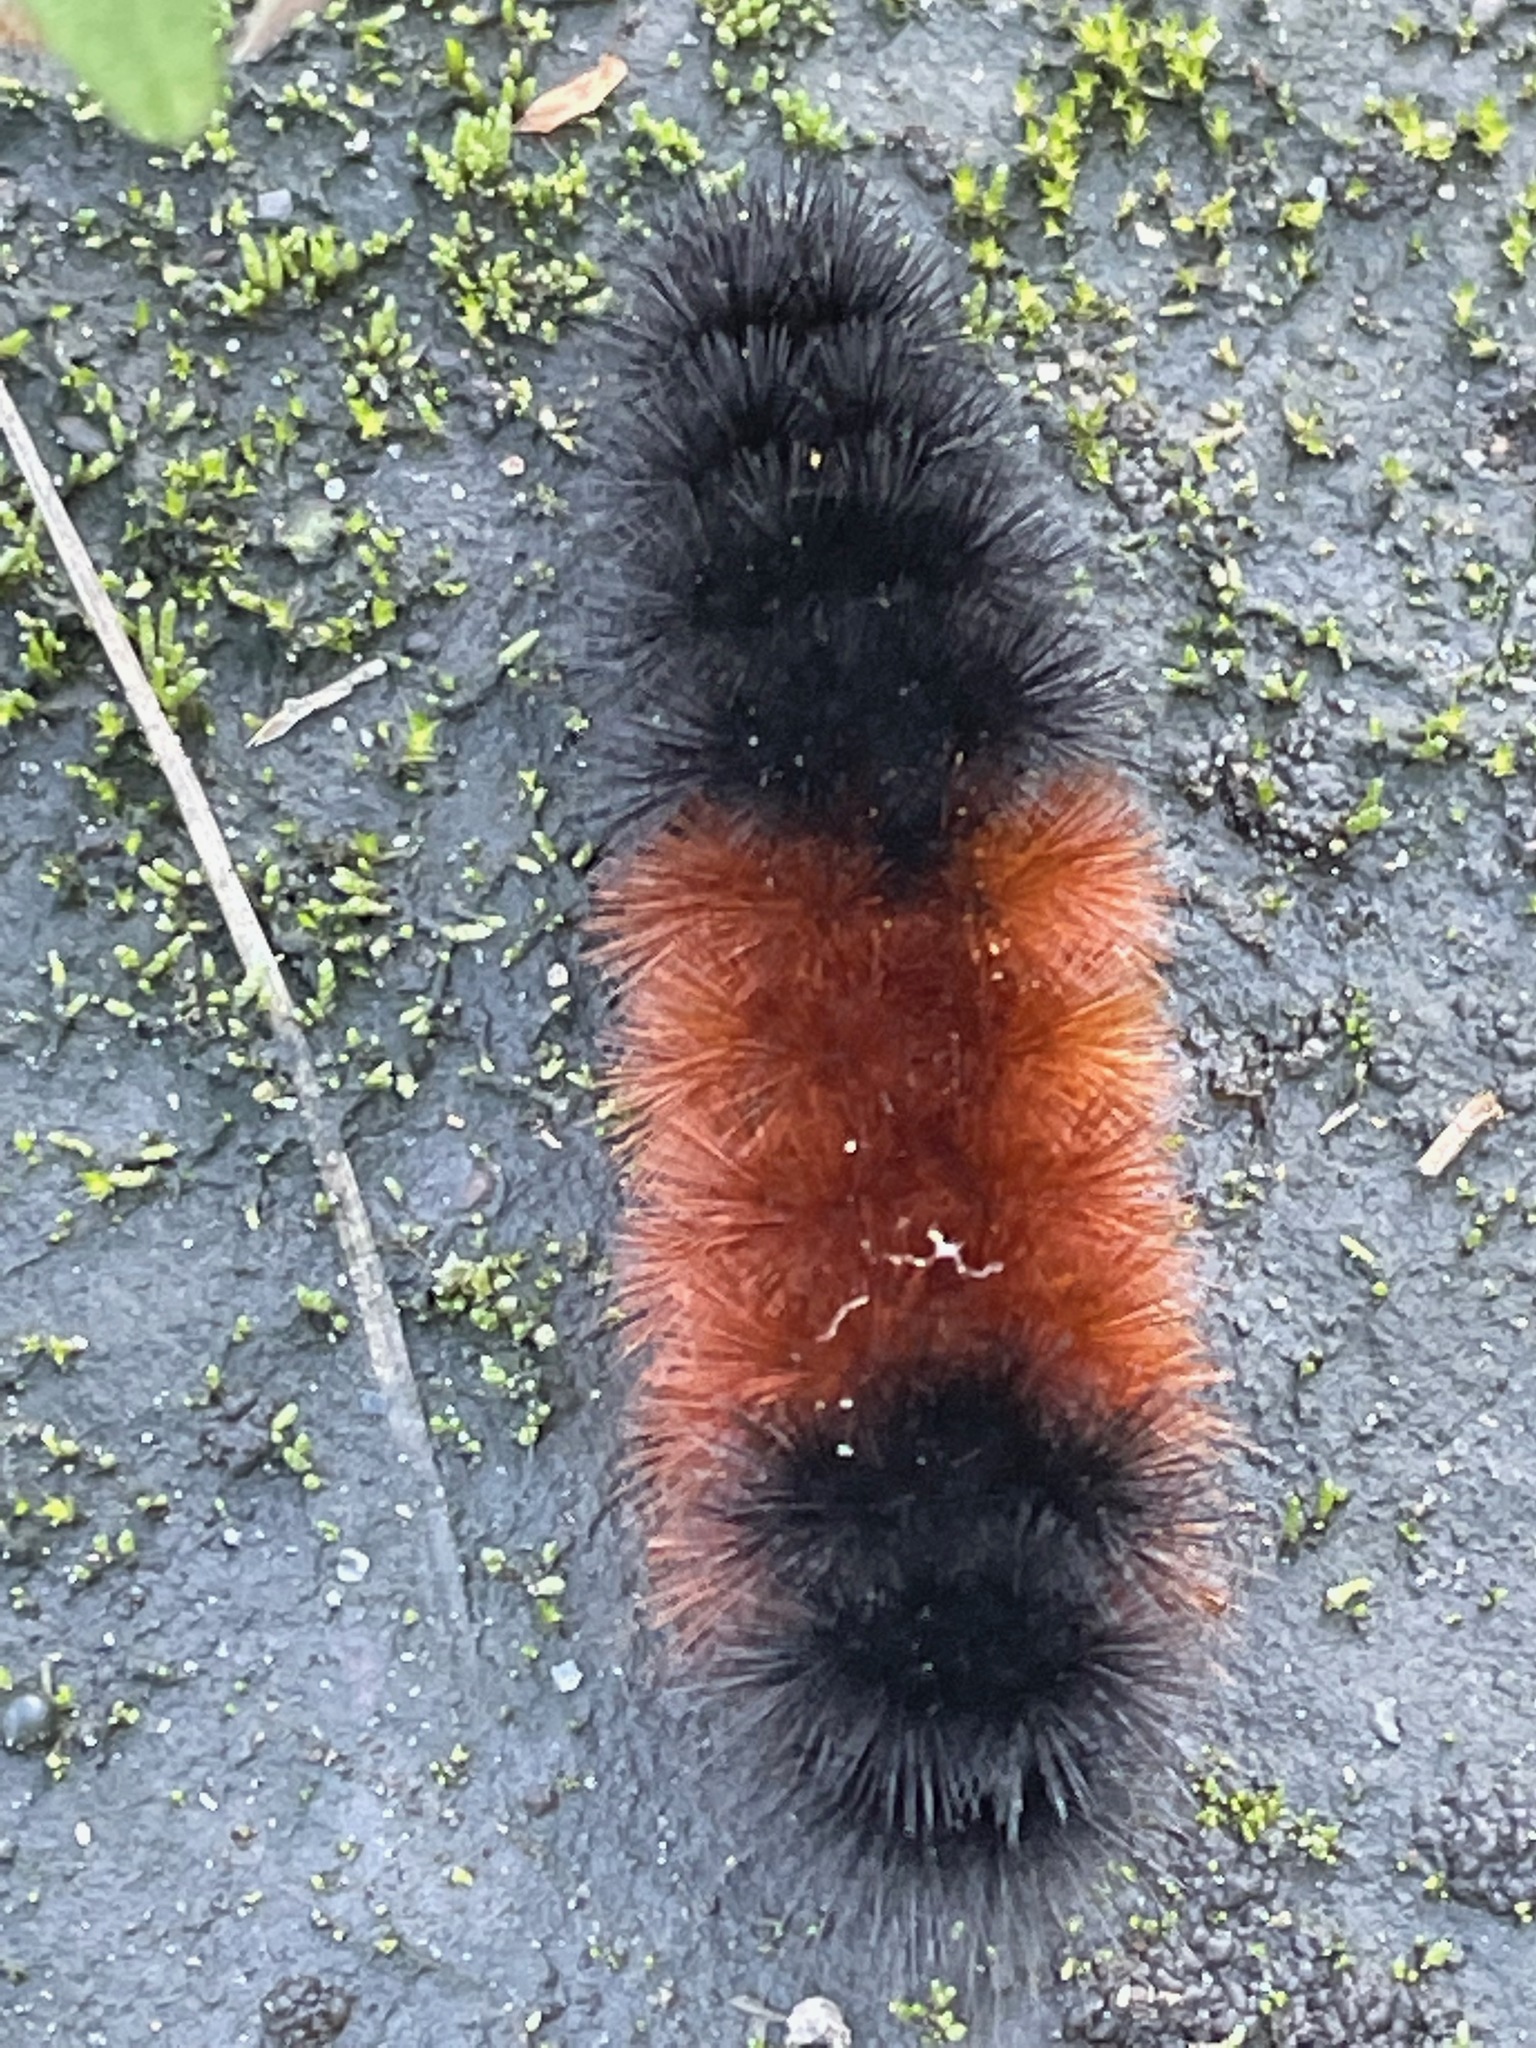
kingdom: Animalia
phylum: Arthropoda
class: Insecta
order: Lepidoptera
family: Erebidae
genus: Pyrrharctia
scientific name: Pyrrharctia isabella
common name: Isabella tiger moth
